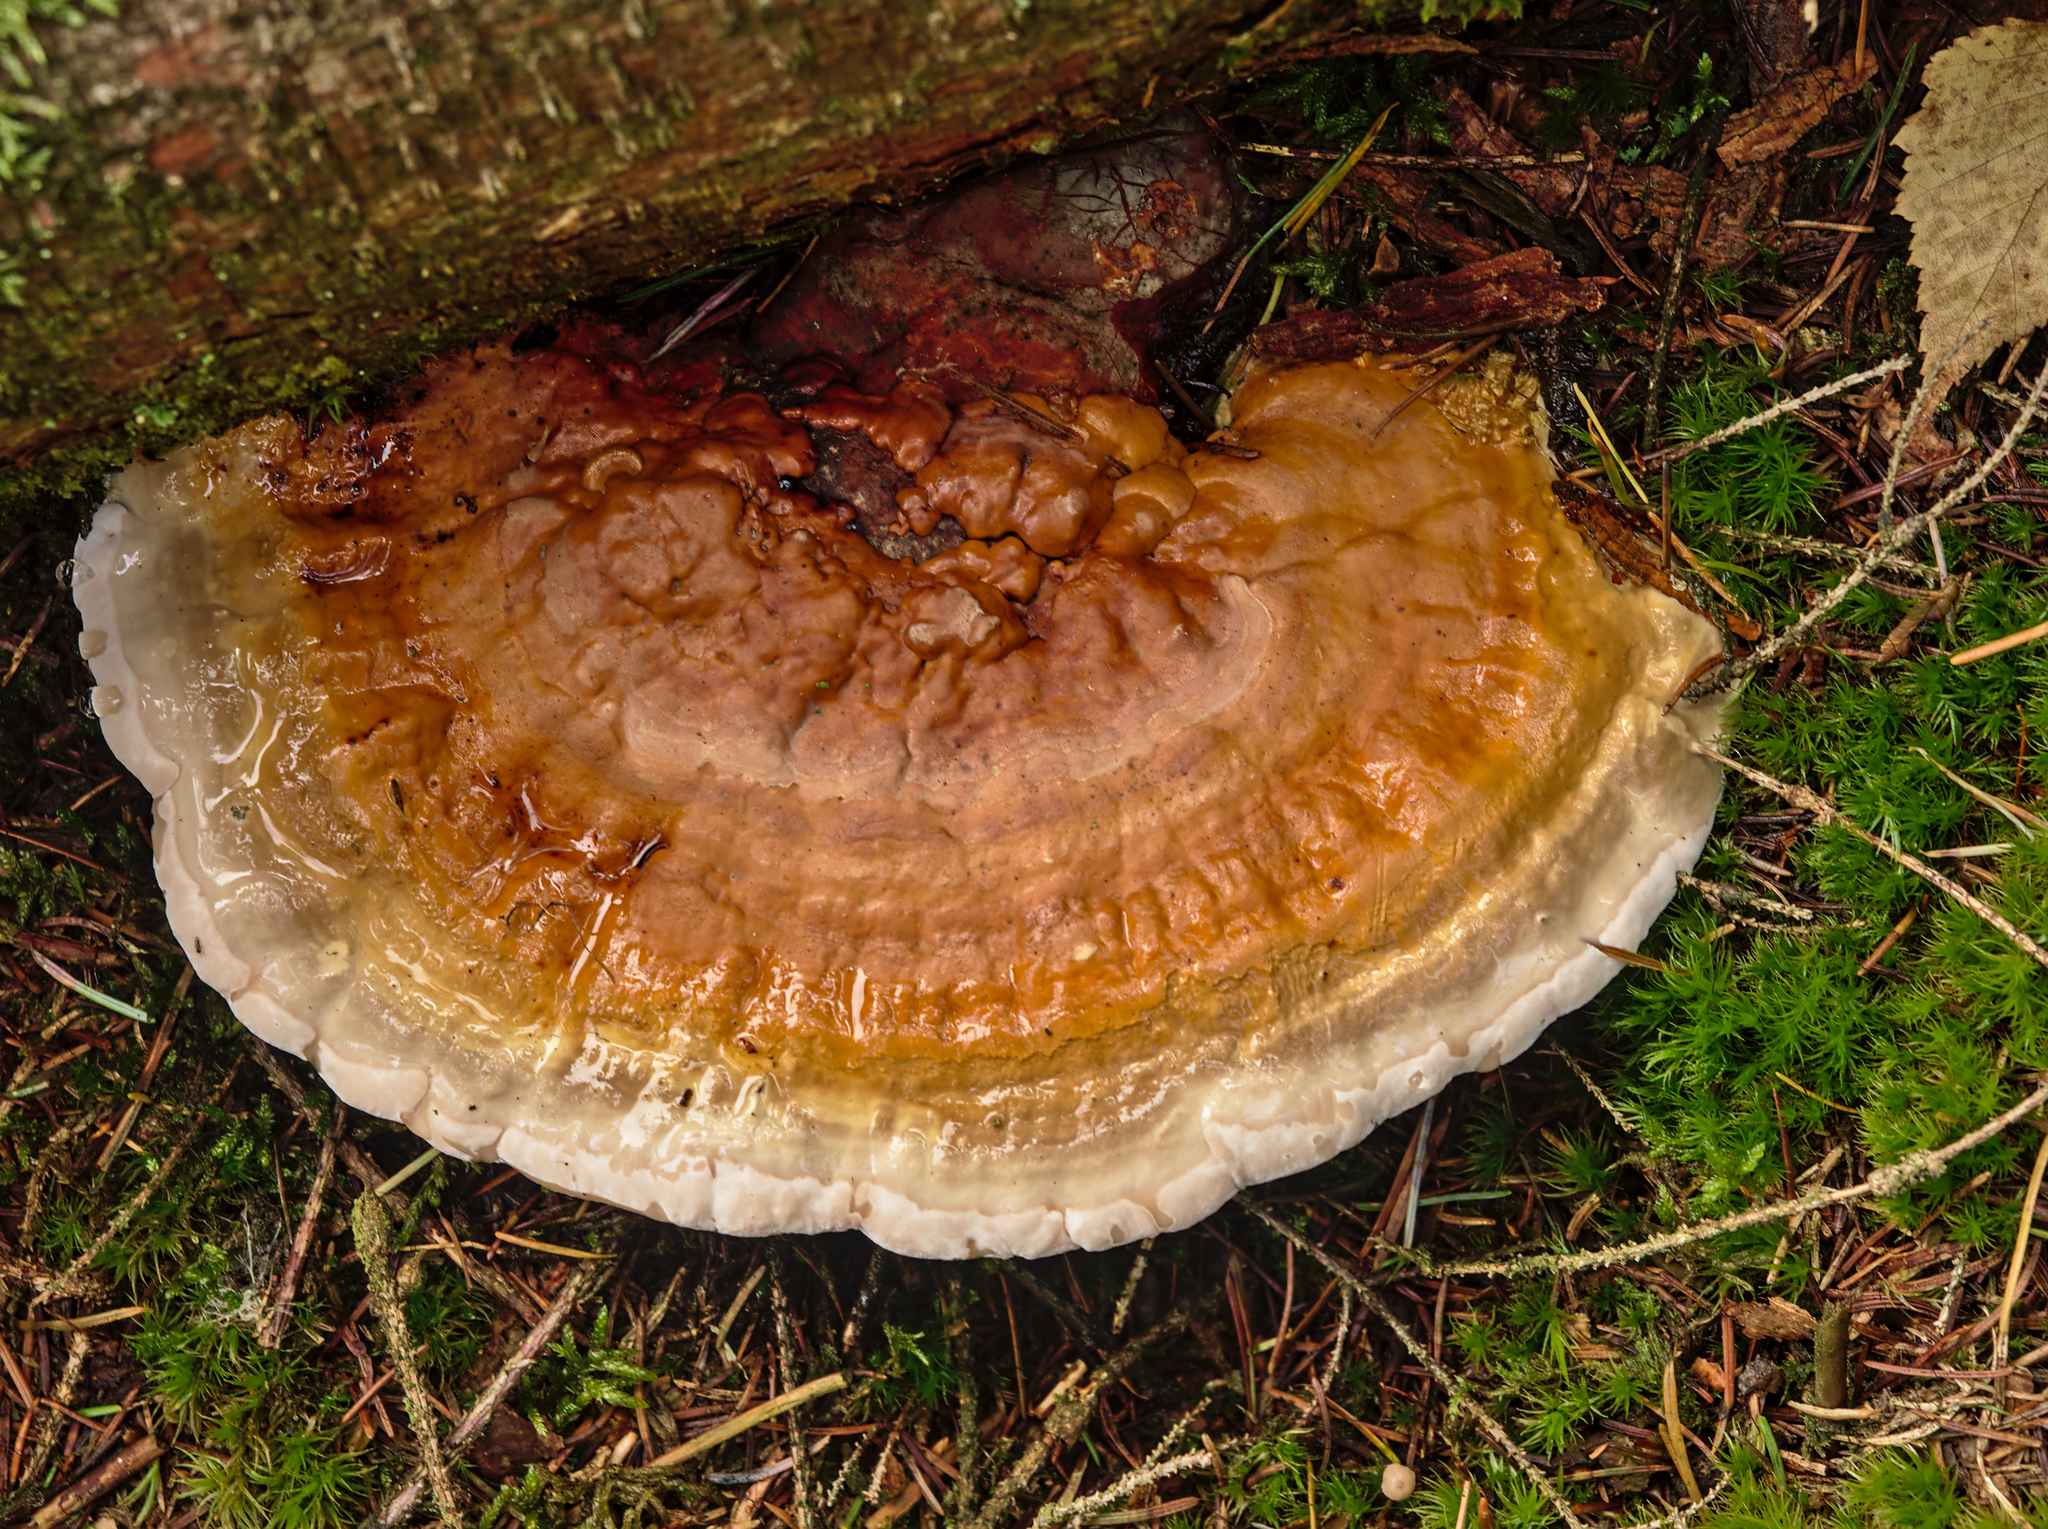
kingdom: Fungi
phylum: Basidiomycota
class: Agaricomycetes
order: Polyporales
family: Fomitopsidaceae
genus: Fomitopsis
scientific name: Fomitopsis pinicola
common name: Red-belted bracket
